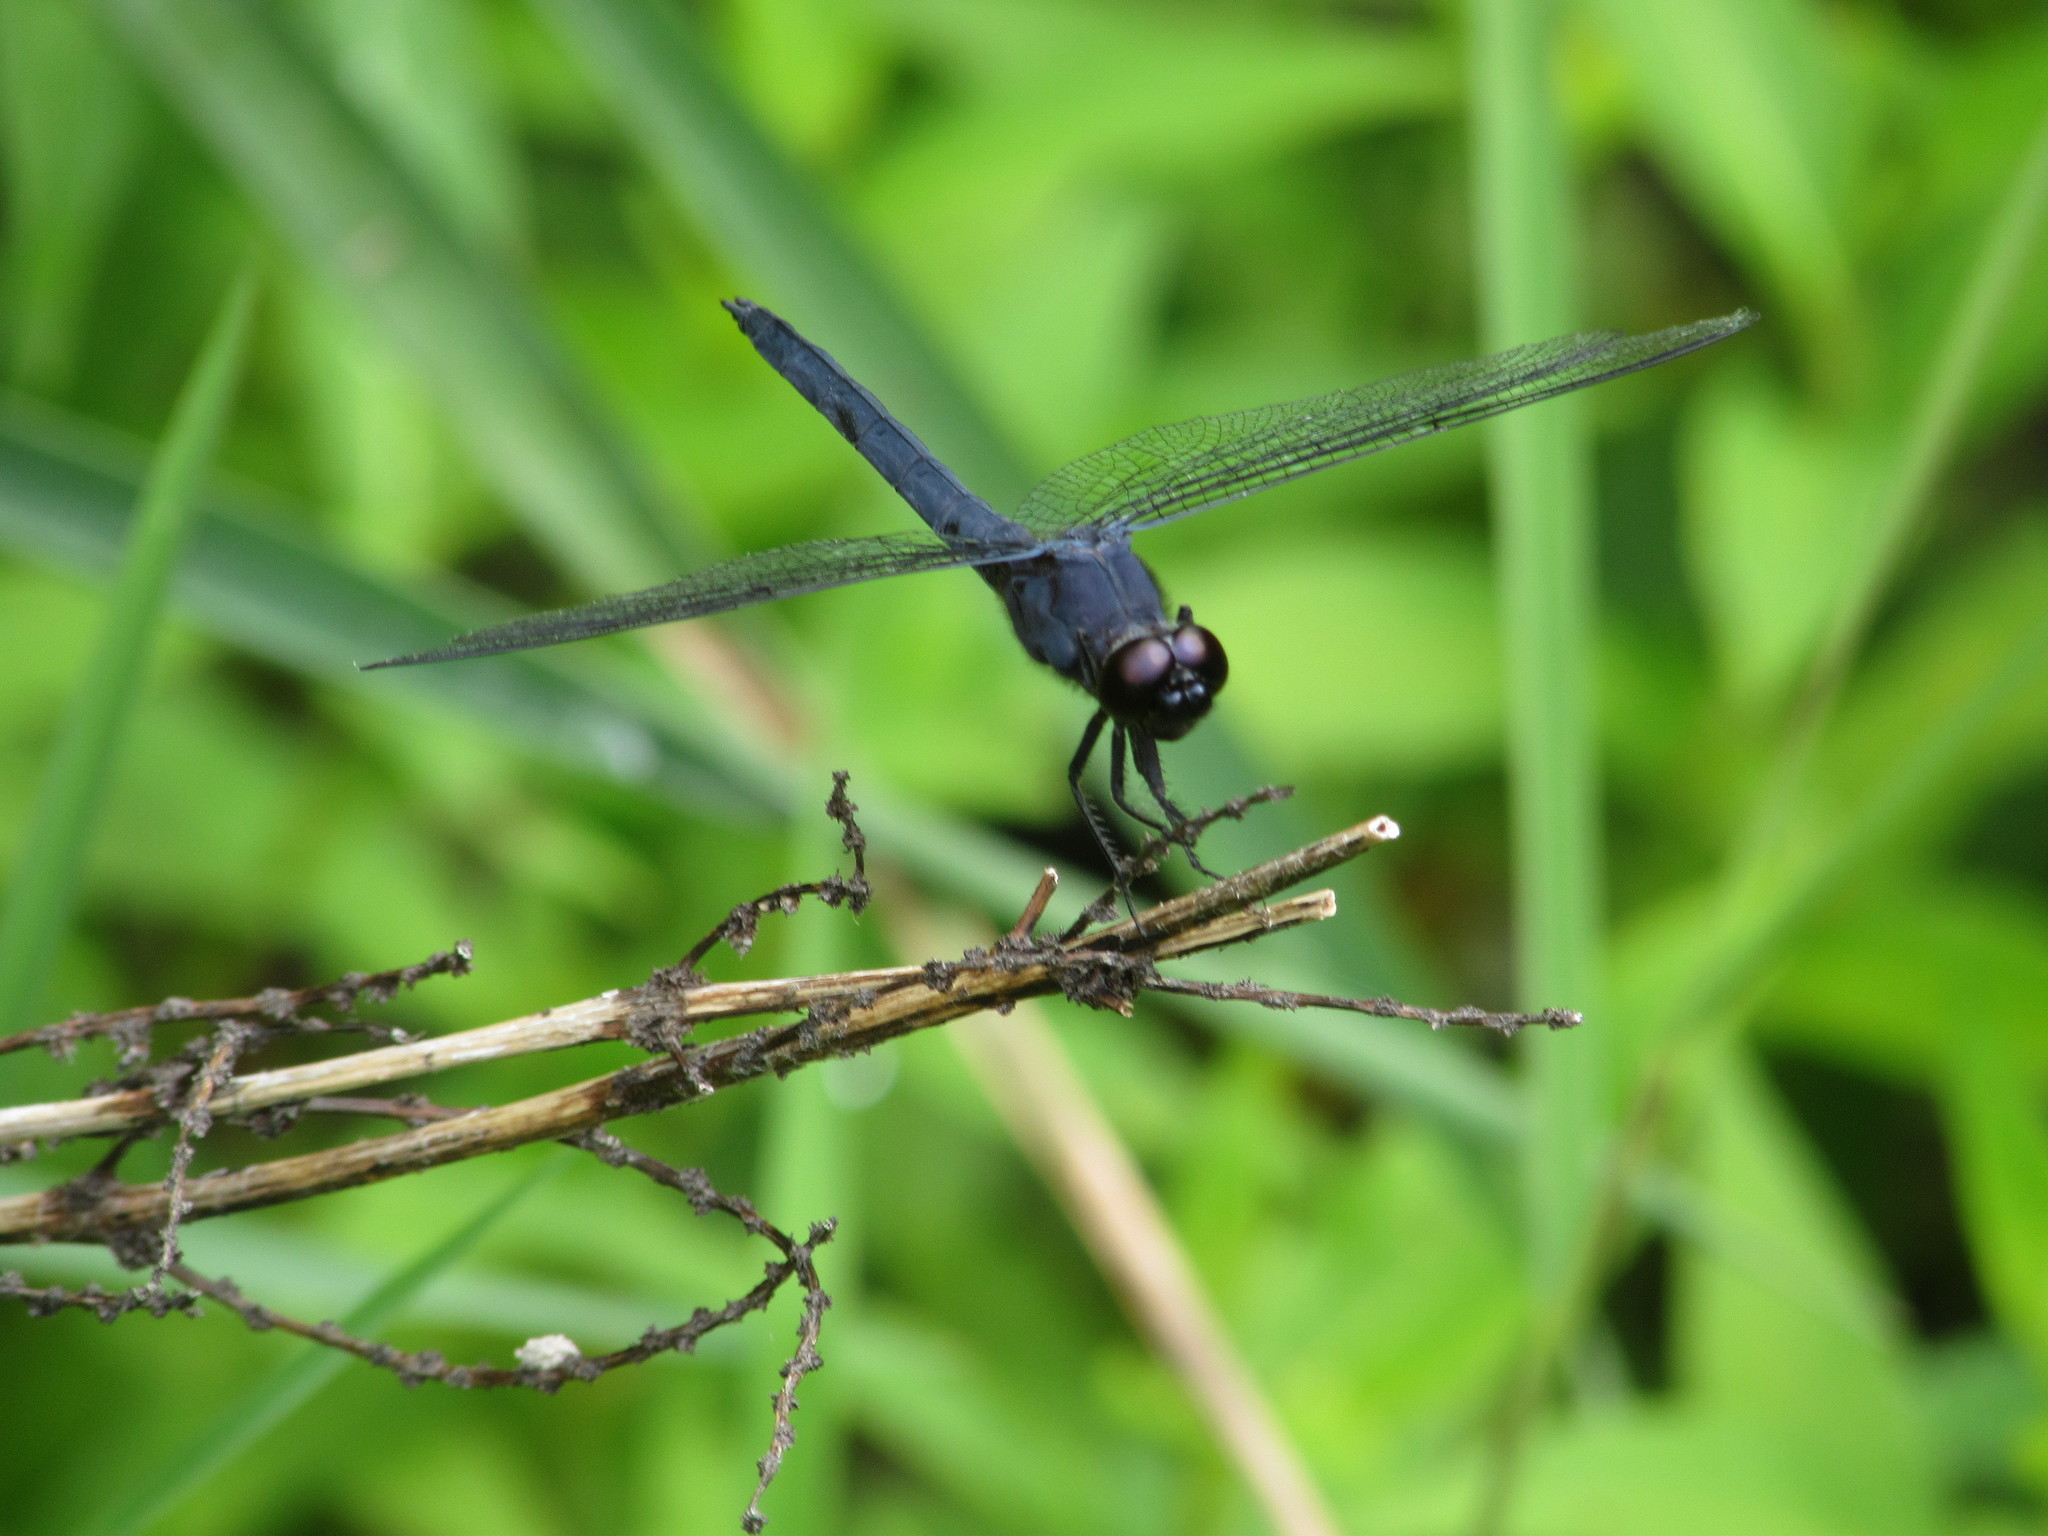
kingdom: Animalia
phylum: Arthropoda
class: Insecta
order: Odonata
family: Libellulidae
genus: Libellula
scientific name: Libellula incesta
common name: Slaty skimmer
